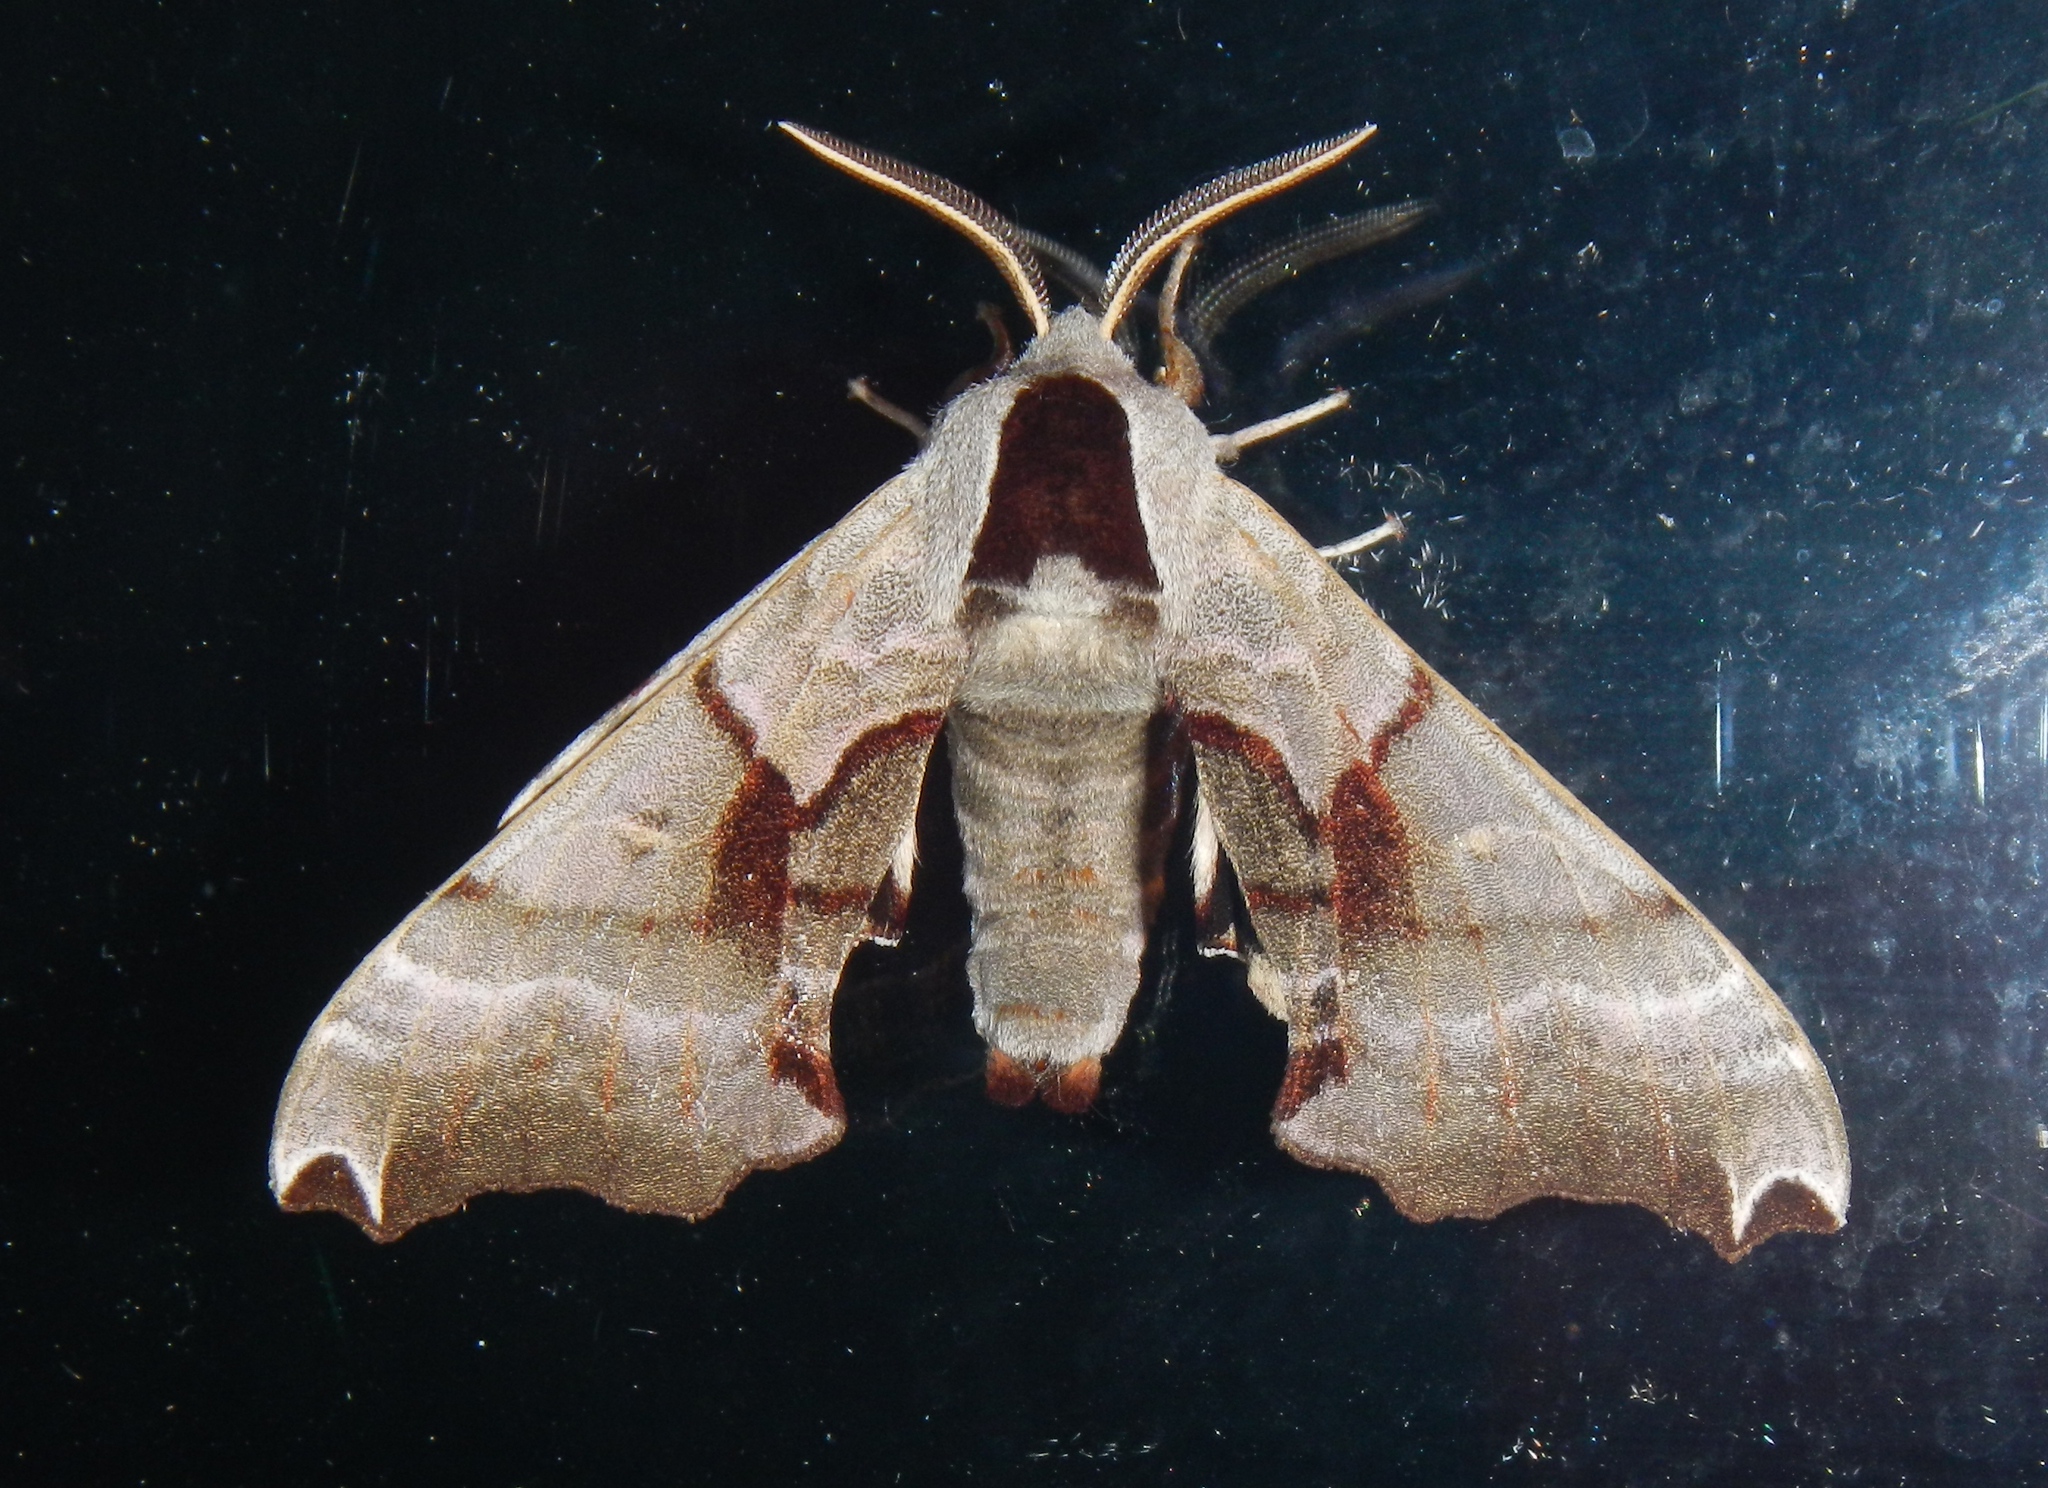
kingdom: Animalia
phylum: Arthropoda
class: Insecta
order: Lepidoptera
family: Sphingidae
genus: Smerinthus
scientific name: Smerinthus jamaicensis
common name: Twin spotted sphinx
